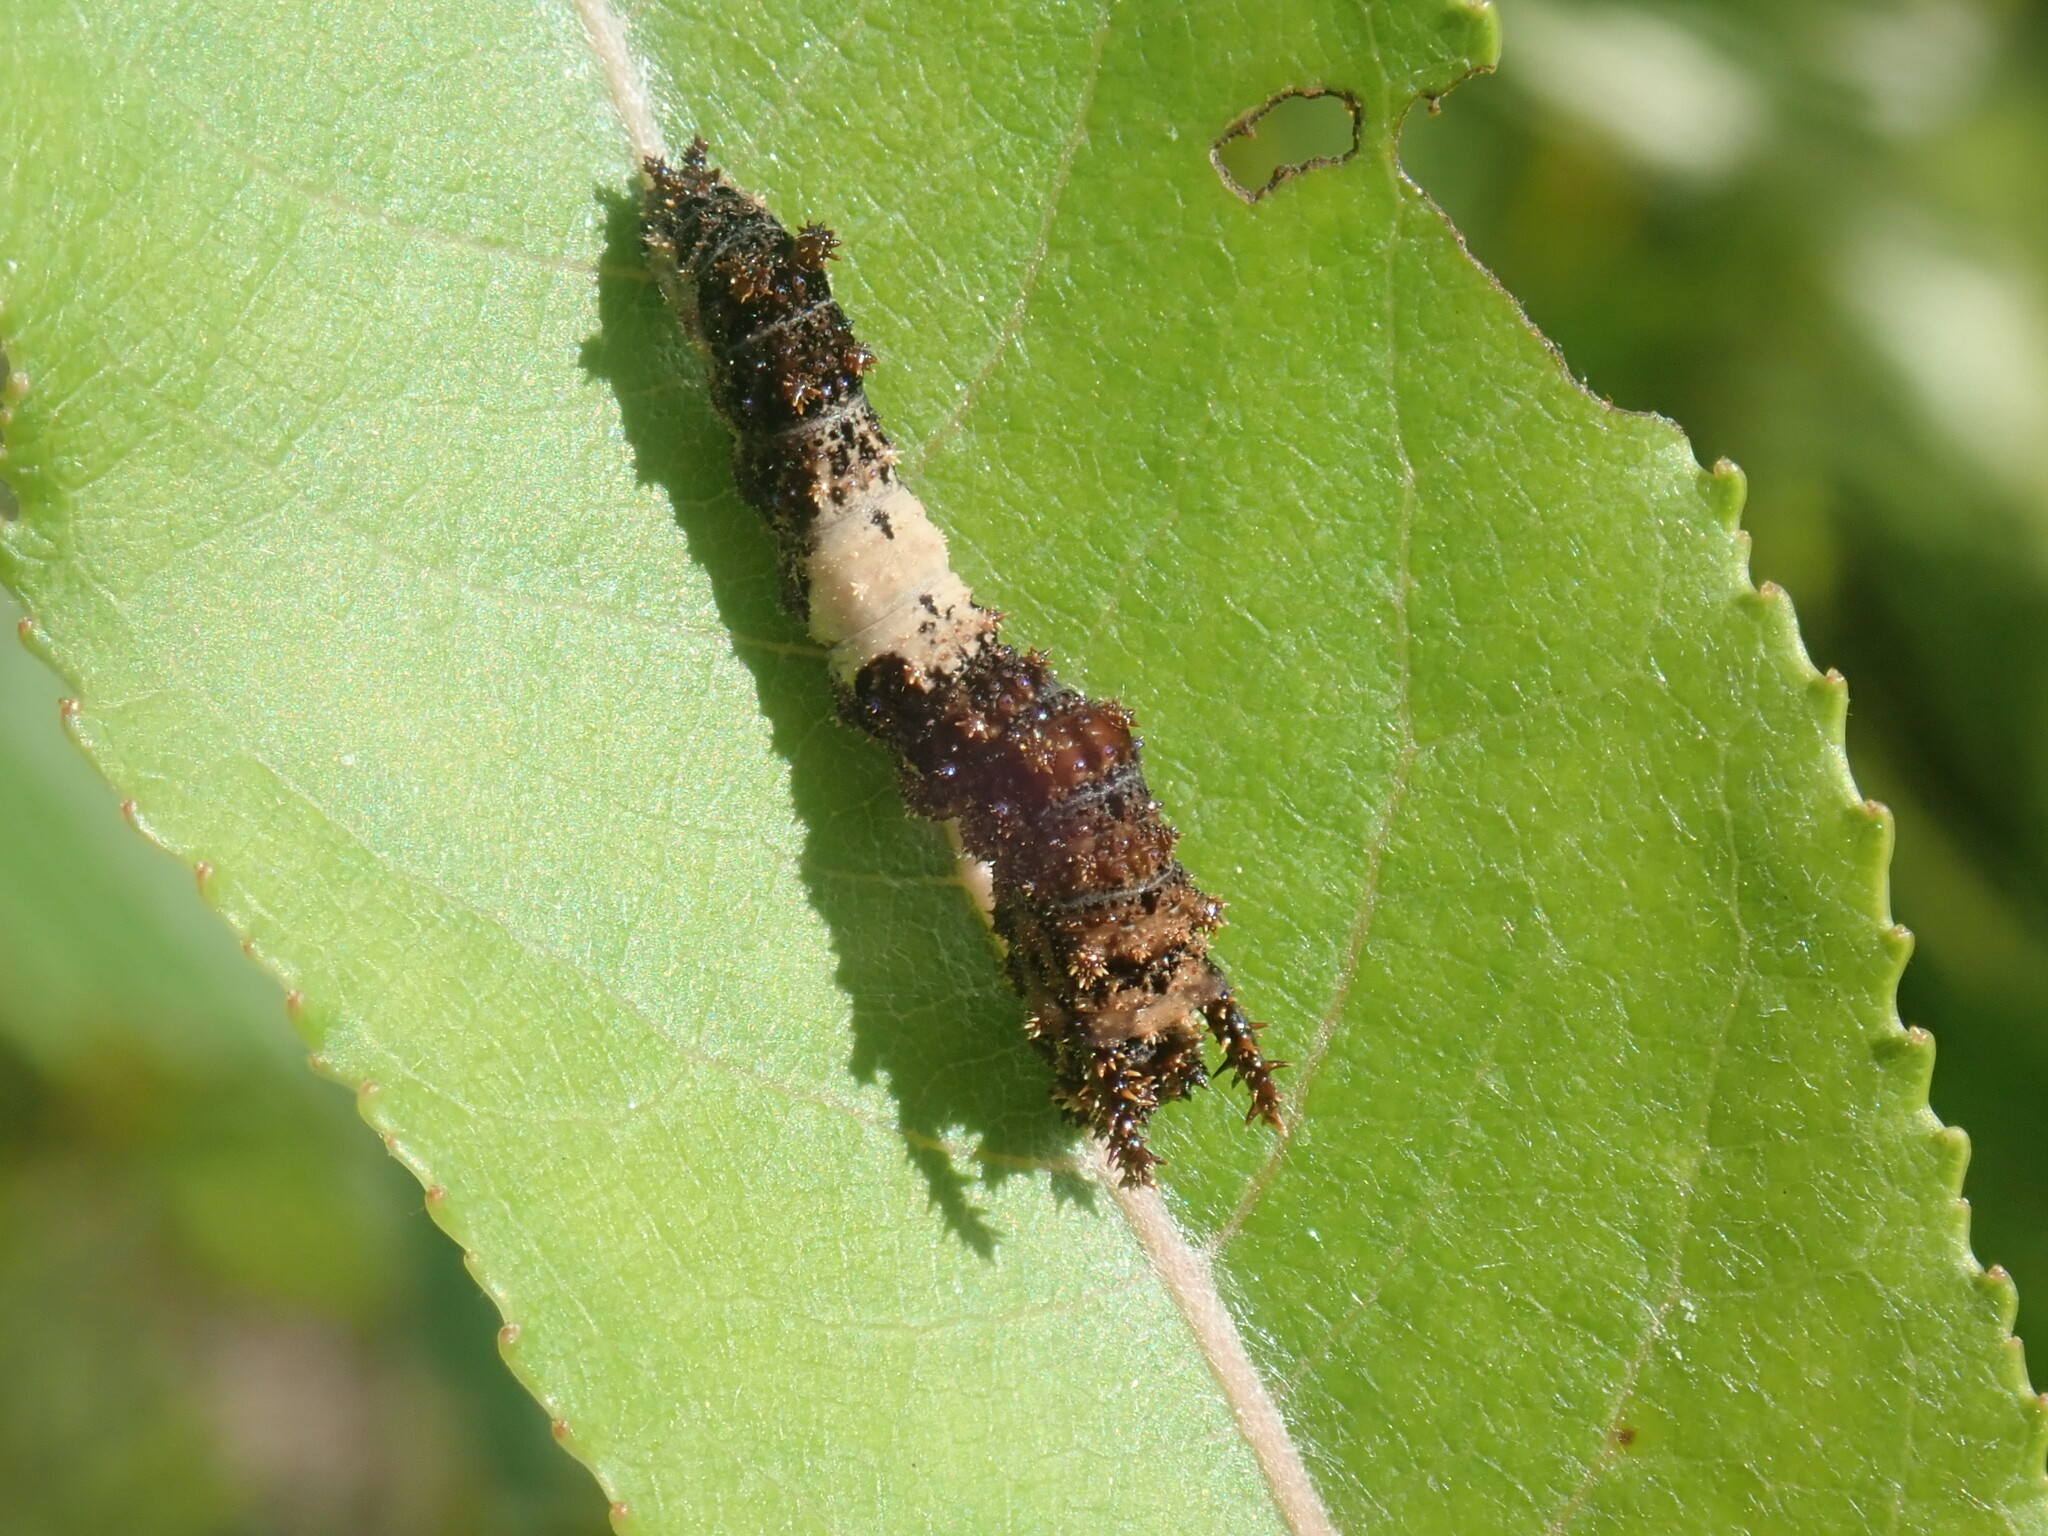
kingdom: Animalia
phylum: Arthropoda
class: Insecta
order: Lepidoptera
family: Nymphalidae
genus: Limenitis
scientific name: Limenitis archippus
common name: Viceroy
